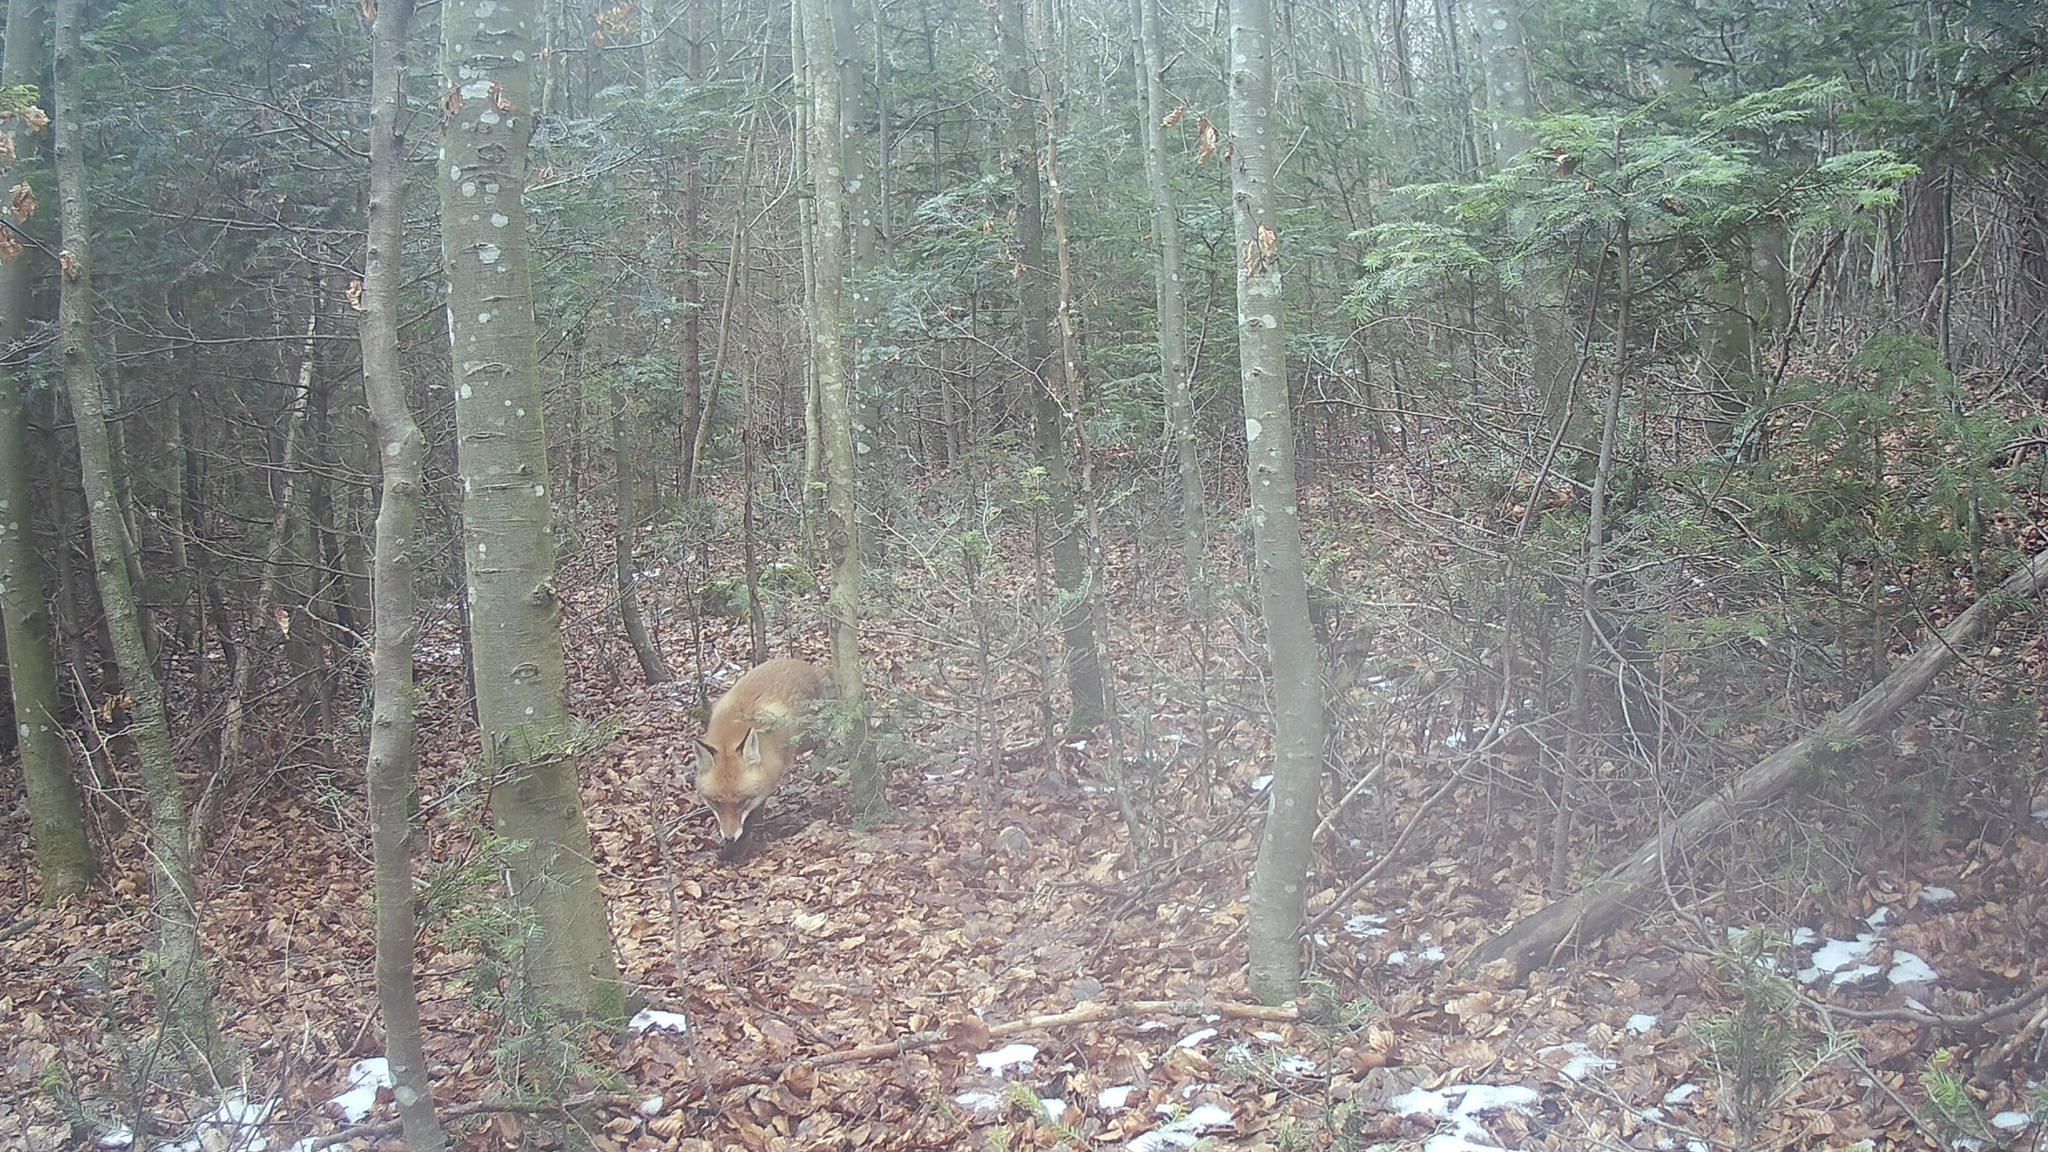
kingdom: Animalia
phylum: Chordata
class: Mammalia
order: Carnivora
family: Canidae
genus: Vulpes
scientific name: Vulpes vulpes
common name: Red fox
